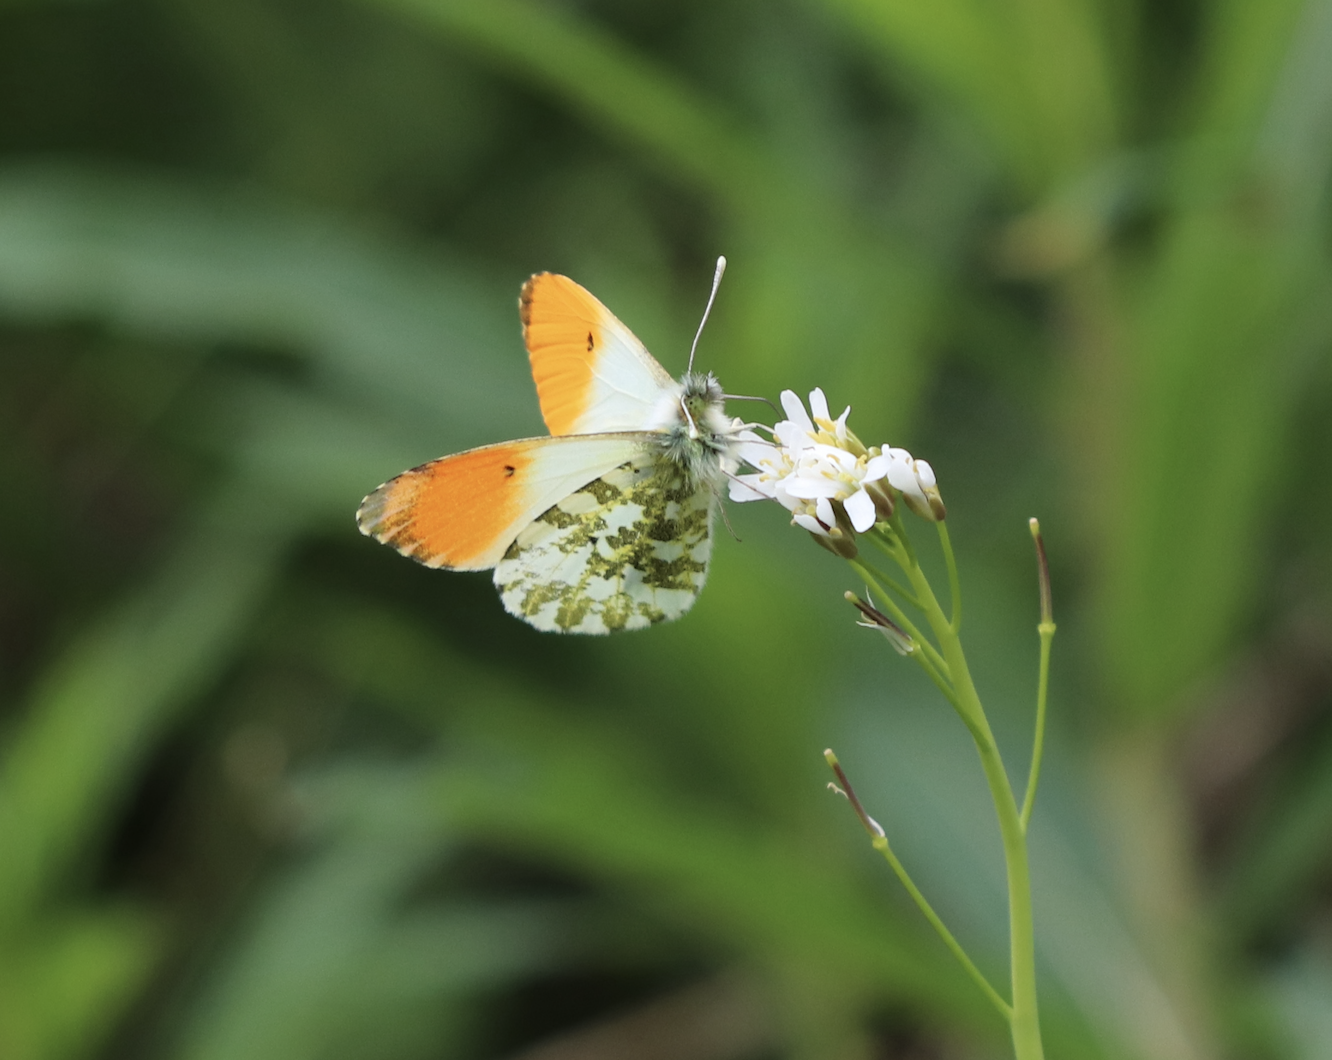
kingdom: Animalia
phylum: Arthropoda
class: Insecta
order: Lepidoptera
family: Pieridae
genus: Anthocharis
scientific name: Anthocharis cardamines
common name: Orange-tip
